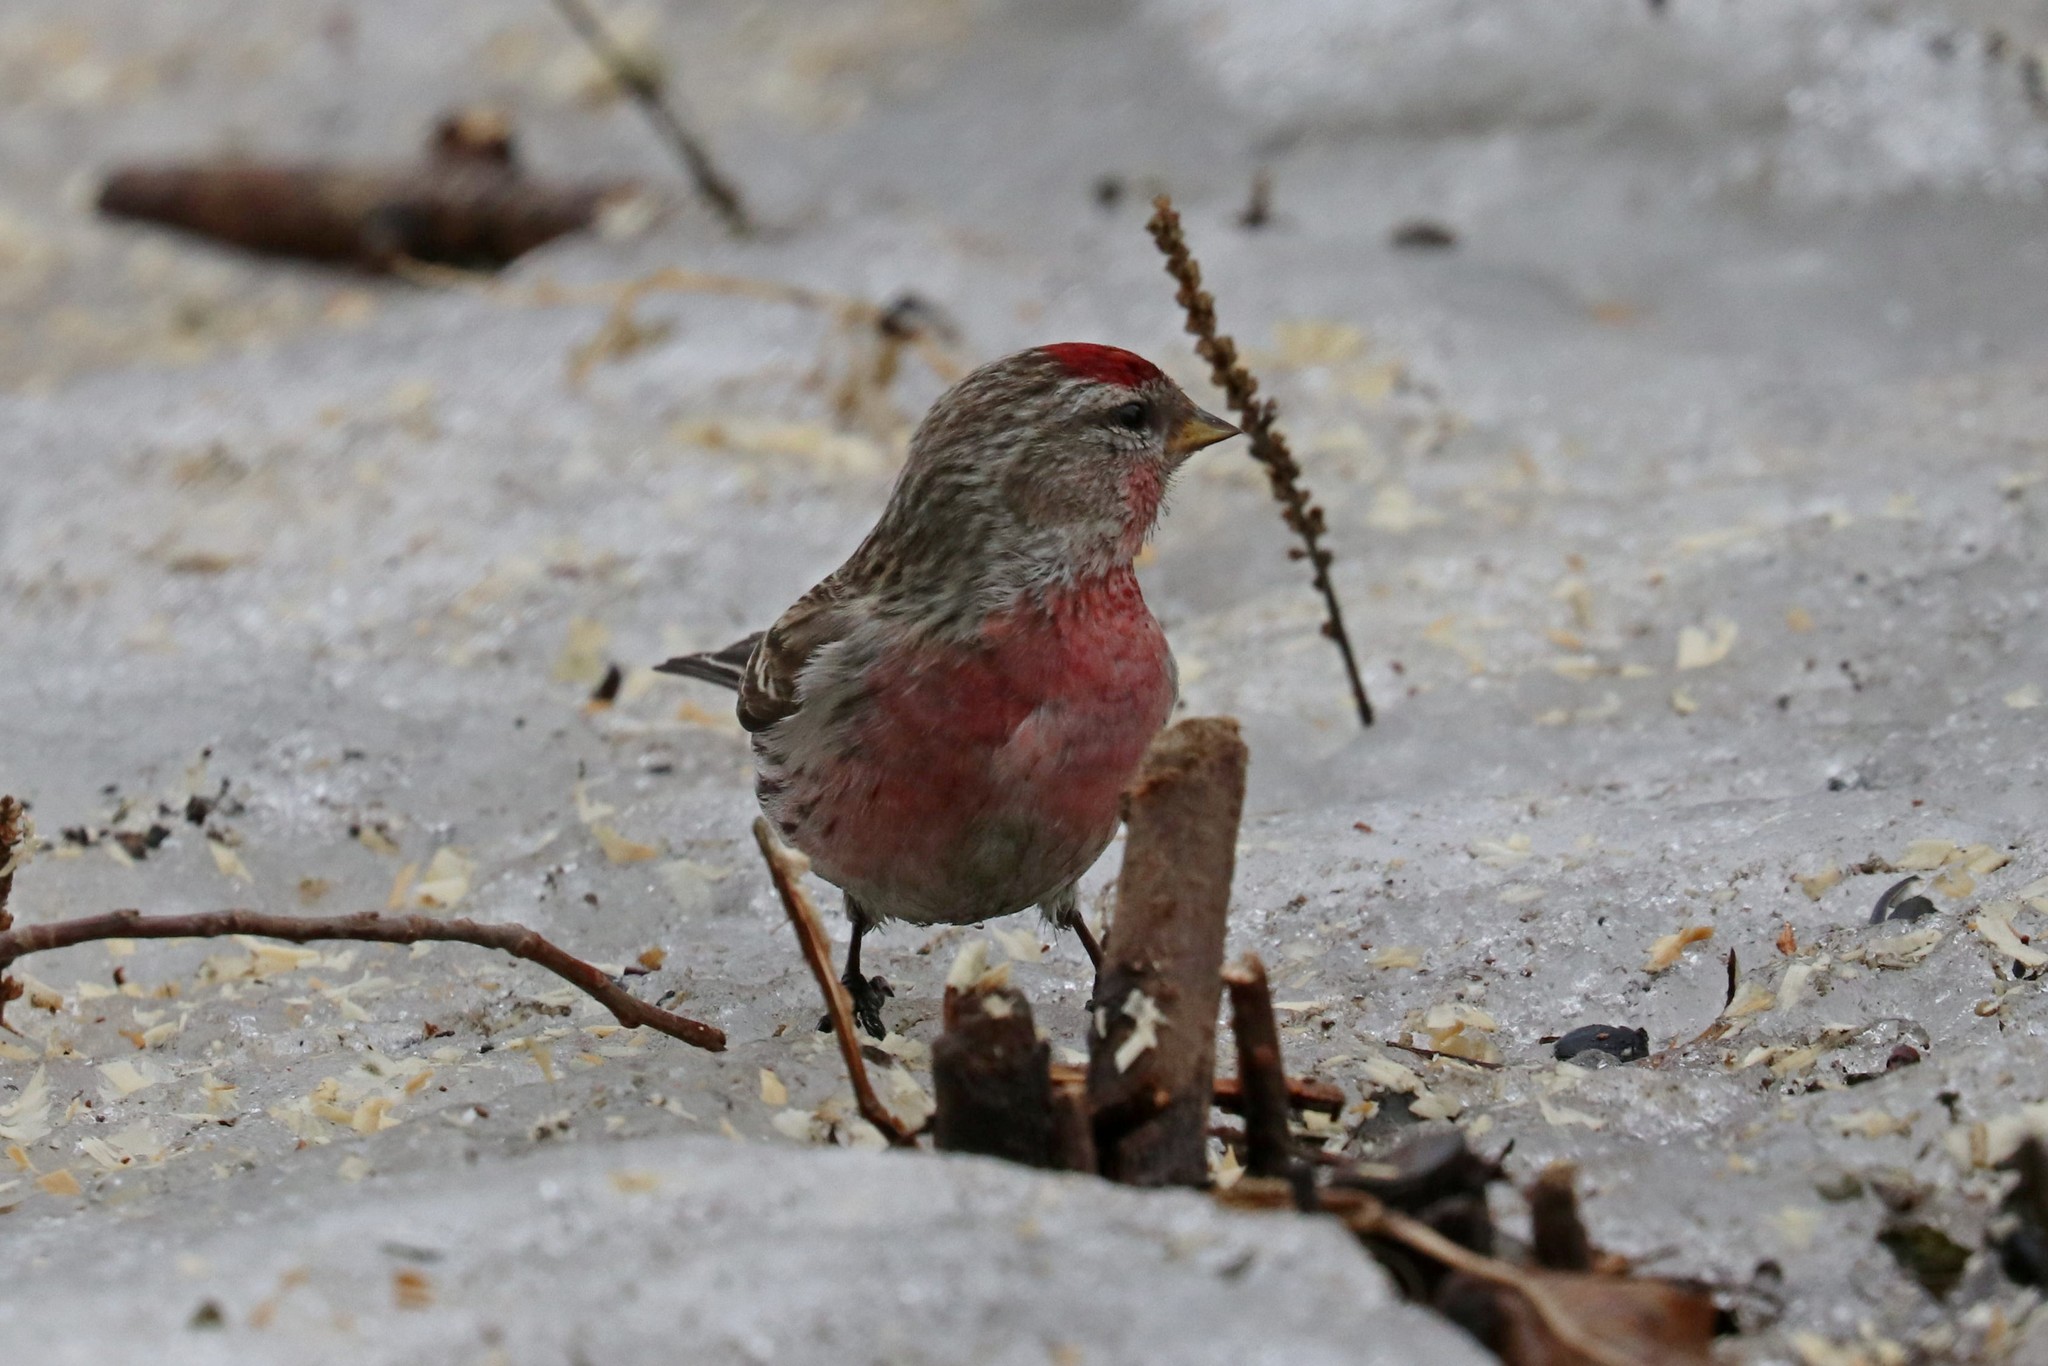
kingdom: Animalia
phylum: Chordata
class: Aves
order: Passeriformes
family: Fringillidae
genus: Acanthis
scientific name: Acanthis flammea
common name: Common redpoll
